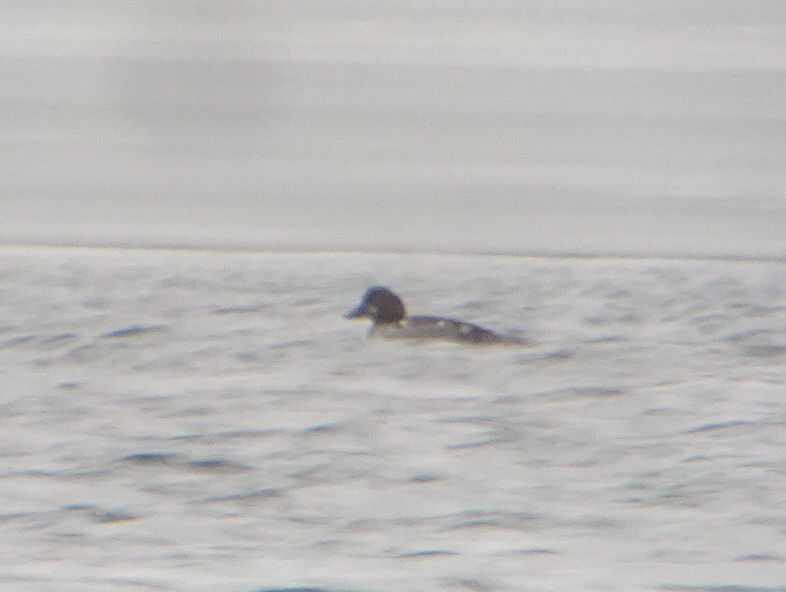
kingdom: Animalia
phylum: Chordata
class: Aves
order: Anseriformes
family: Anatidae
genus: Bucephala
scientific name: Bucephala clangula
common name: Common goldeneye
